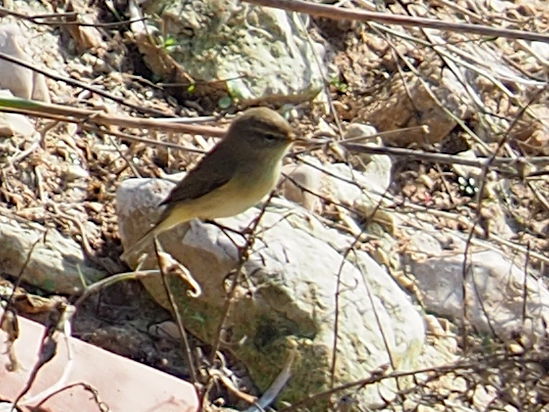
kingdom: Animalia
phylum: Chordata
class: Aves
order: Passeriformes
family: Phylloscopidae
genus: Phylloscopus
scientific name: Phylloscopus collybita
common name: Common chiffchaff
